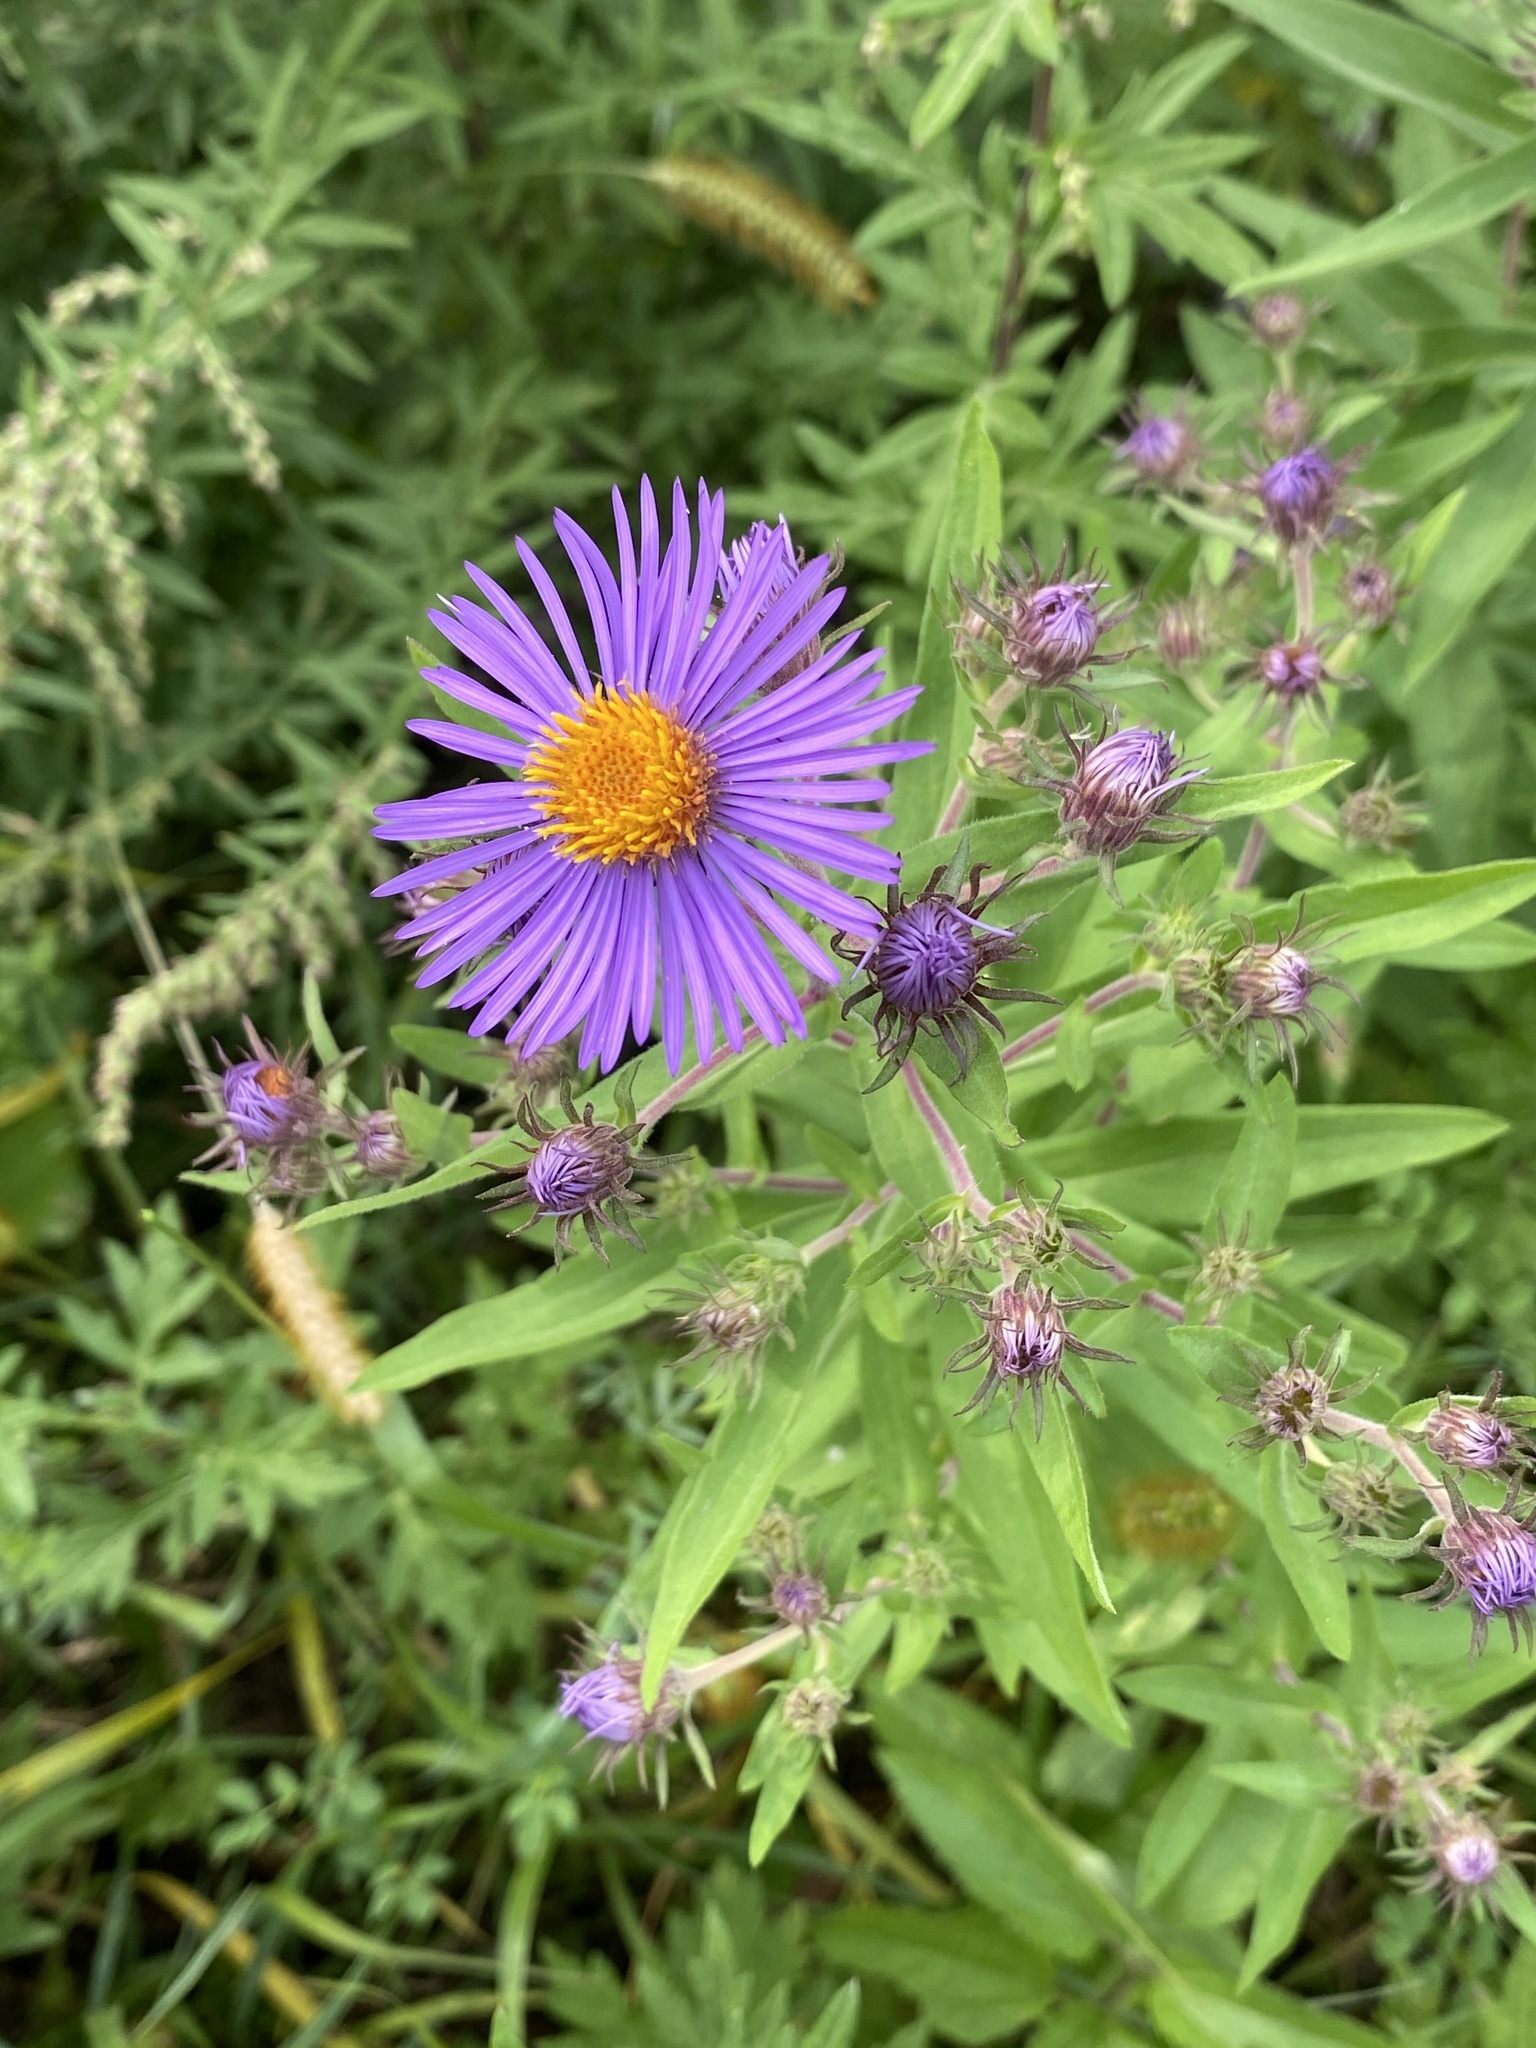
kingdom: Plantae
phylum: Tracheophyta
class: Magnoliopsida
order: Asterales
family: Asteraceae
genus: Symphyotrichum
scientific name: Symphyotrichum novae-angliae
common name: Michaelmas daisy
